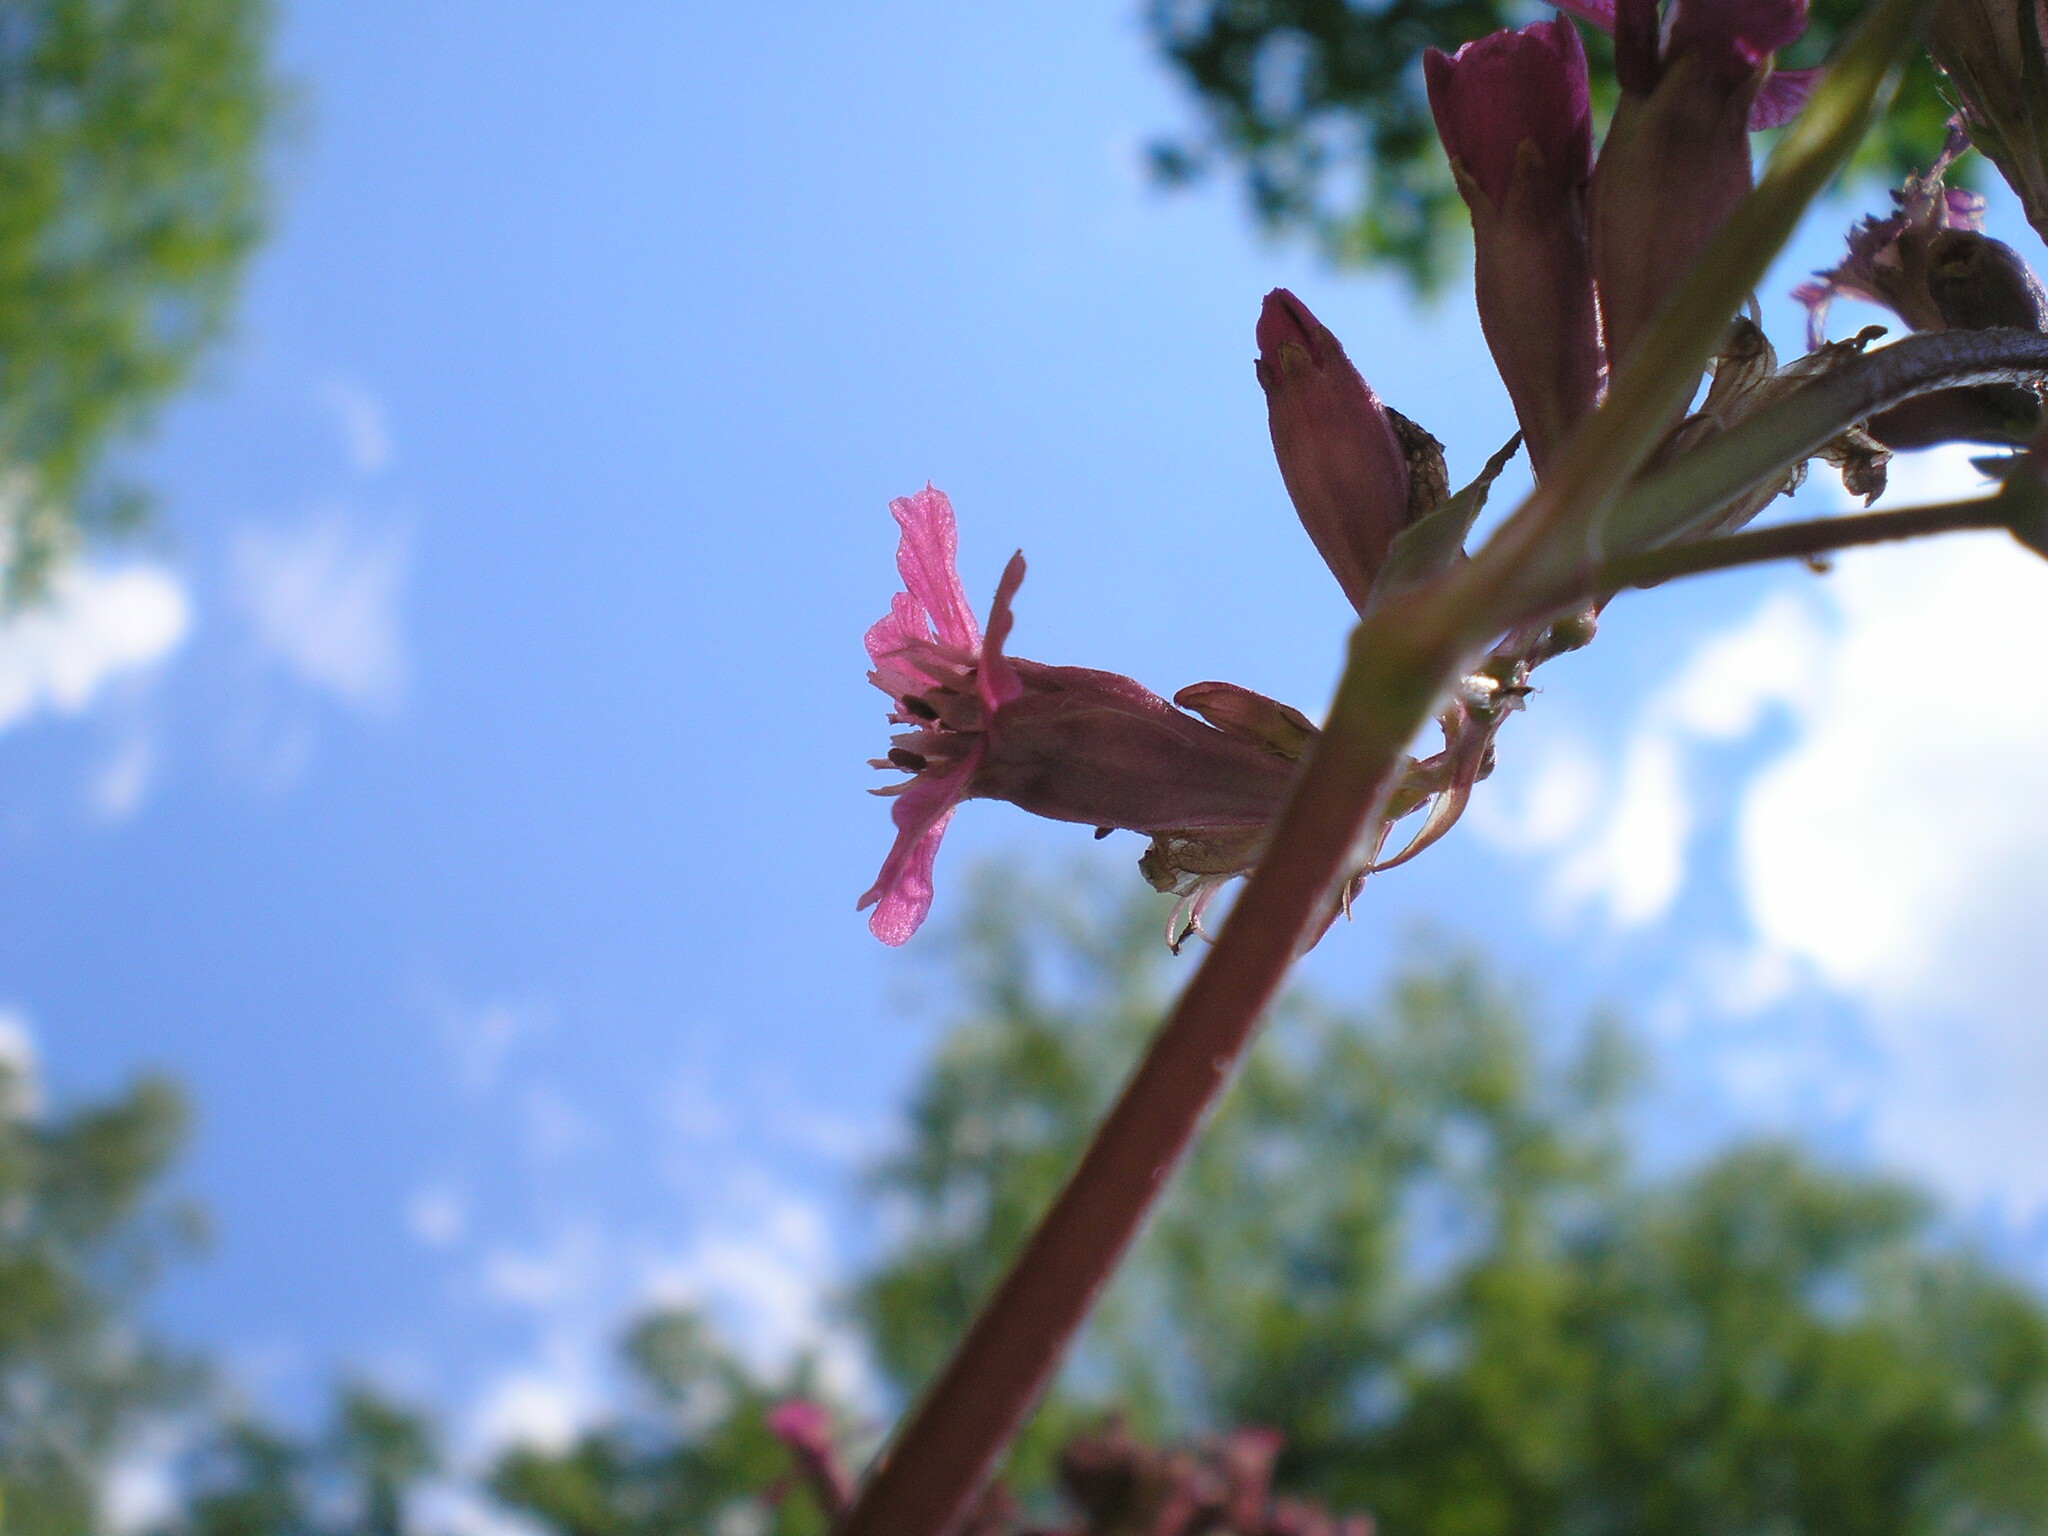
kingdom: Plantae
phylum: Tracheophyta
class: Magnoliopsida
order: Caryophyllales
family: Caryophyllaceae
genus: Viscaria
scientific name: Viscaria vulgaris
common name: Clammy campion
